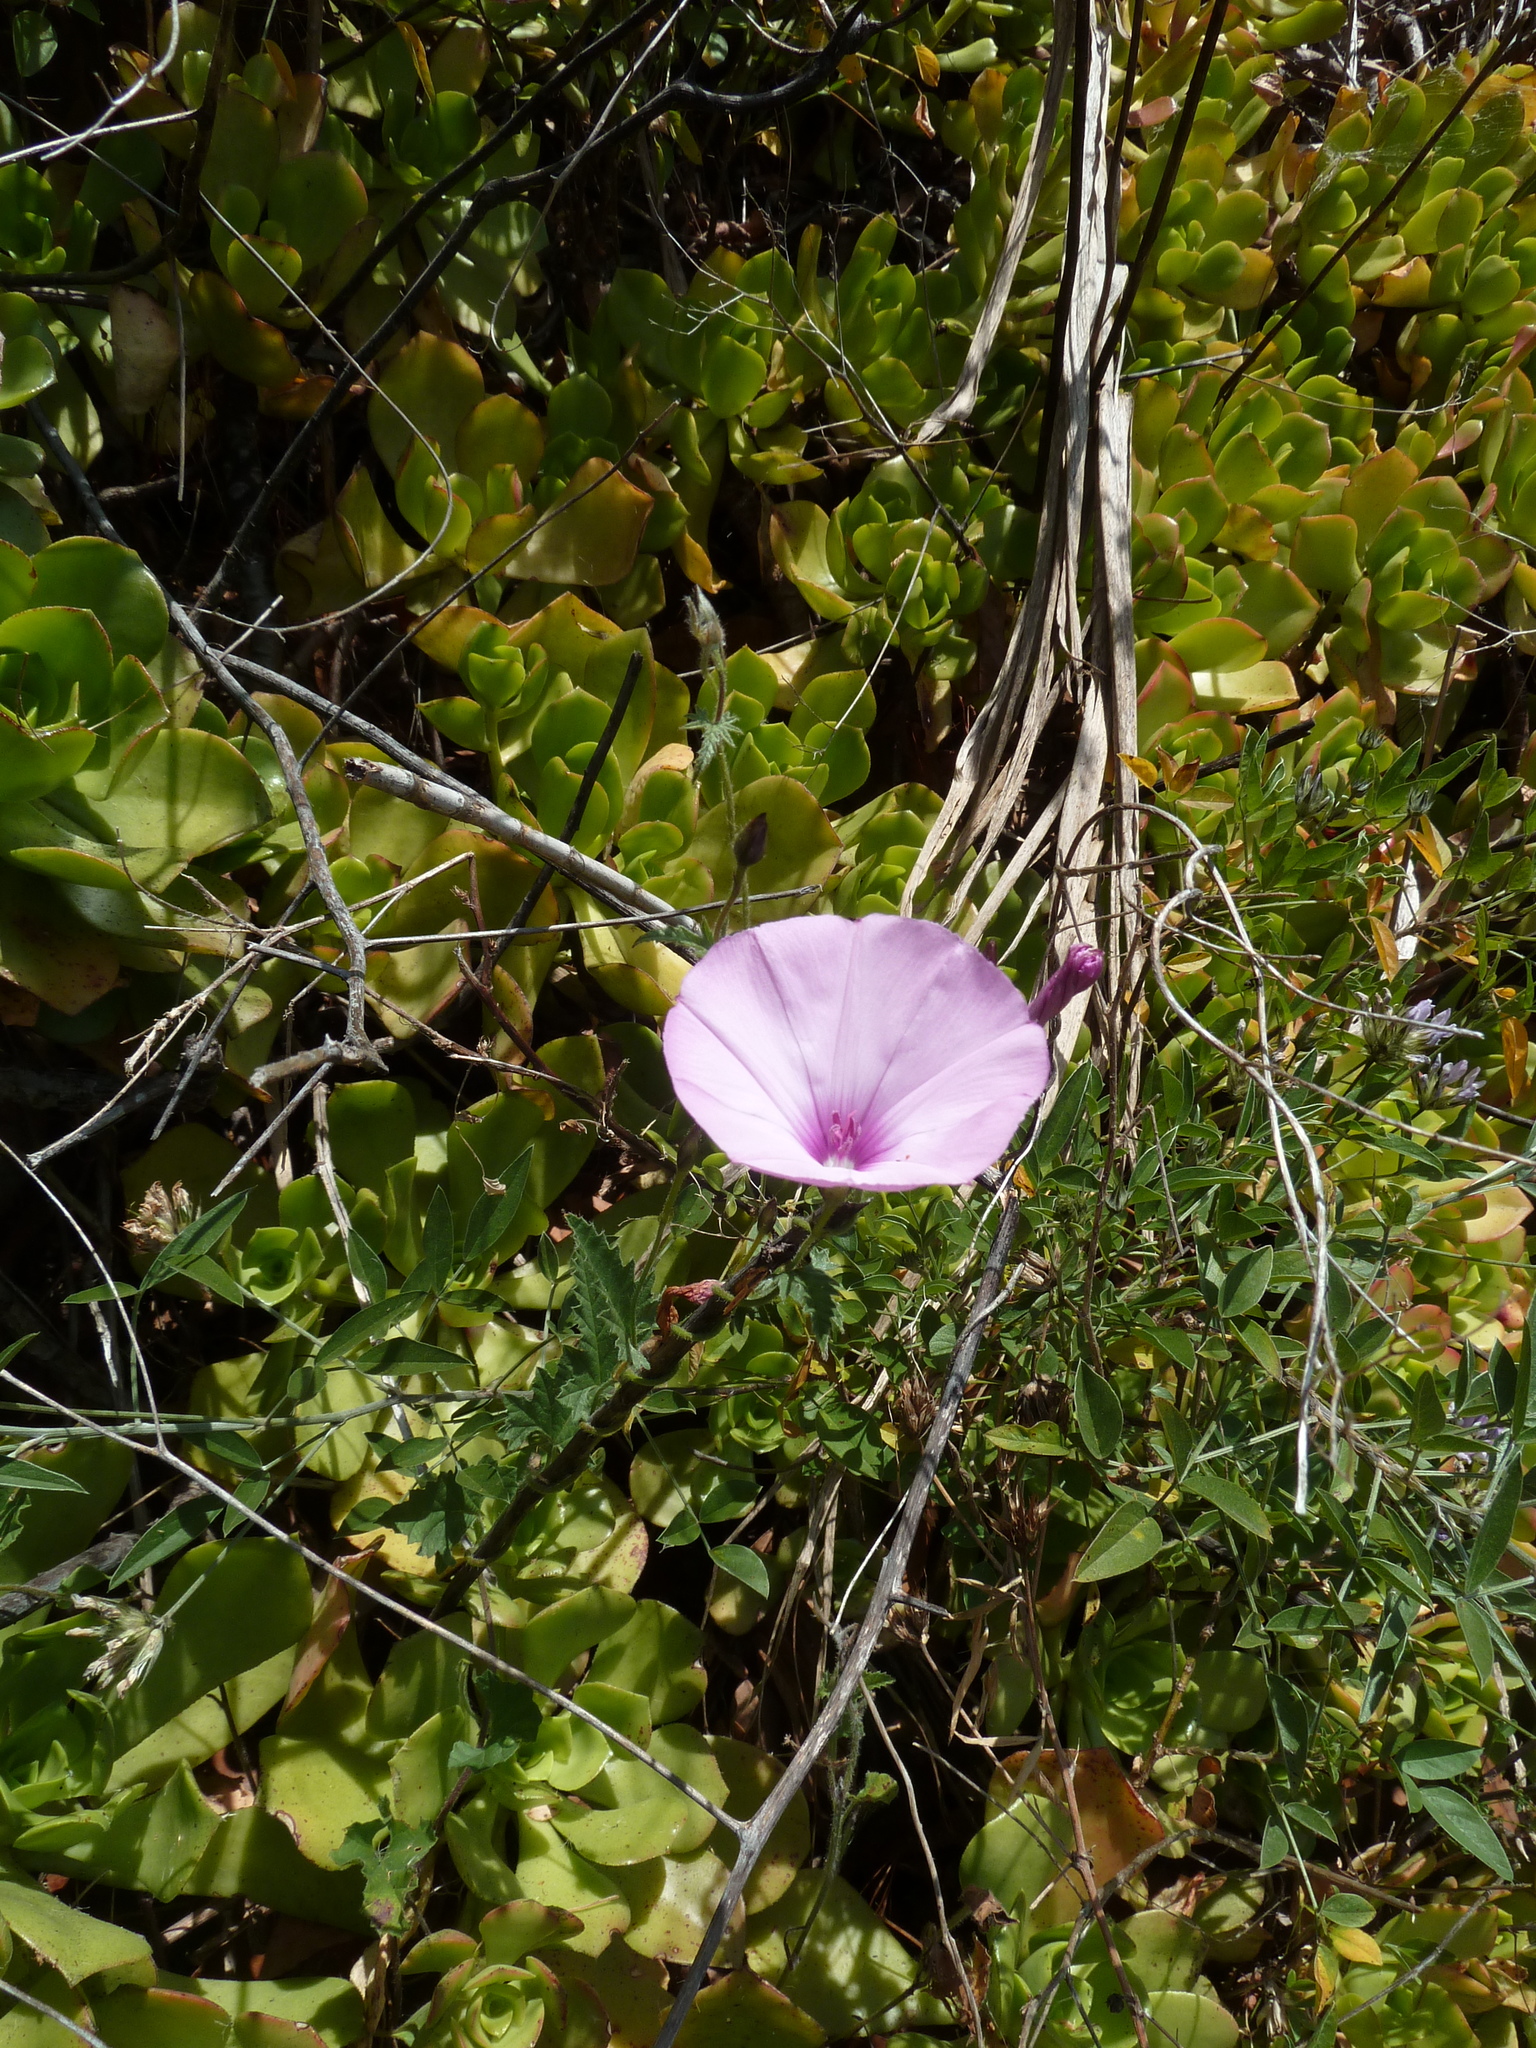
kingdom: Plantae
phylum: Tracheophyta
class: Magnoliopsida
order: Solanales
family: Convolvulaceae
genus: Convolvulus
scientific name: Convolvulus althaeoides
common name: Mallow bindweed
